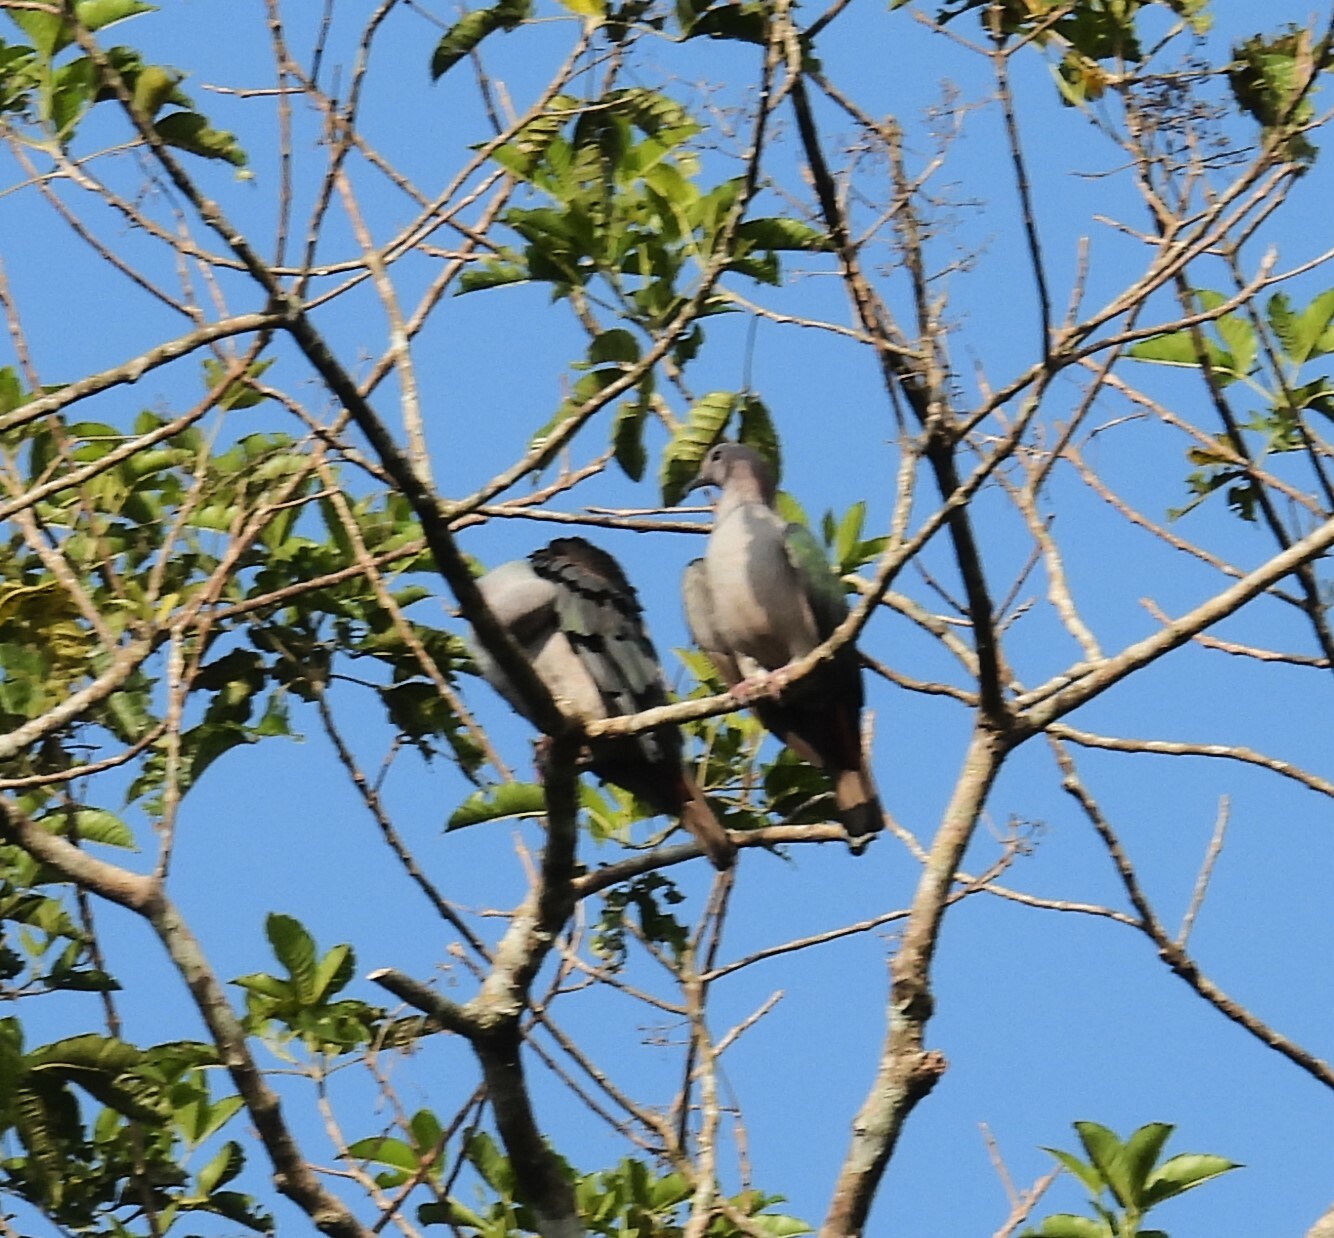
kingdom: Animalia
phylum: Chordata
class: Aves
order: Columbiformes
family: Columbidae
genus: Ducula
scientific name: Ducula aenea
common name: Green imperial pigeon
